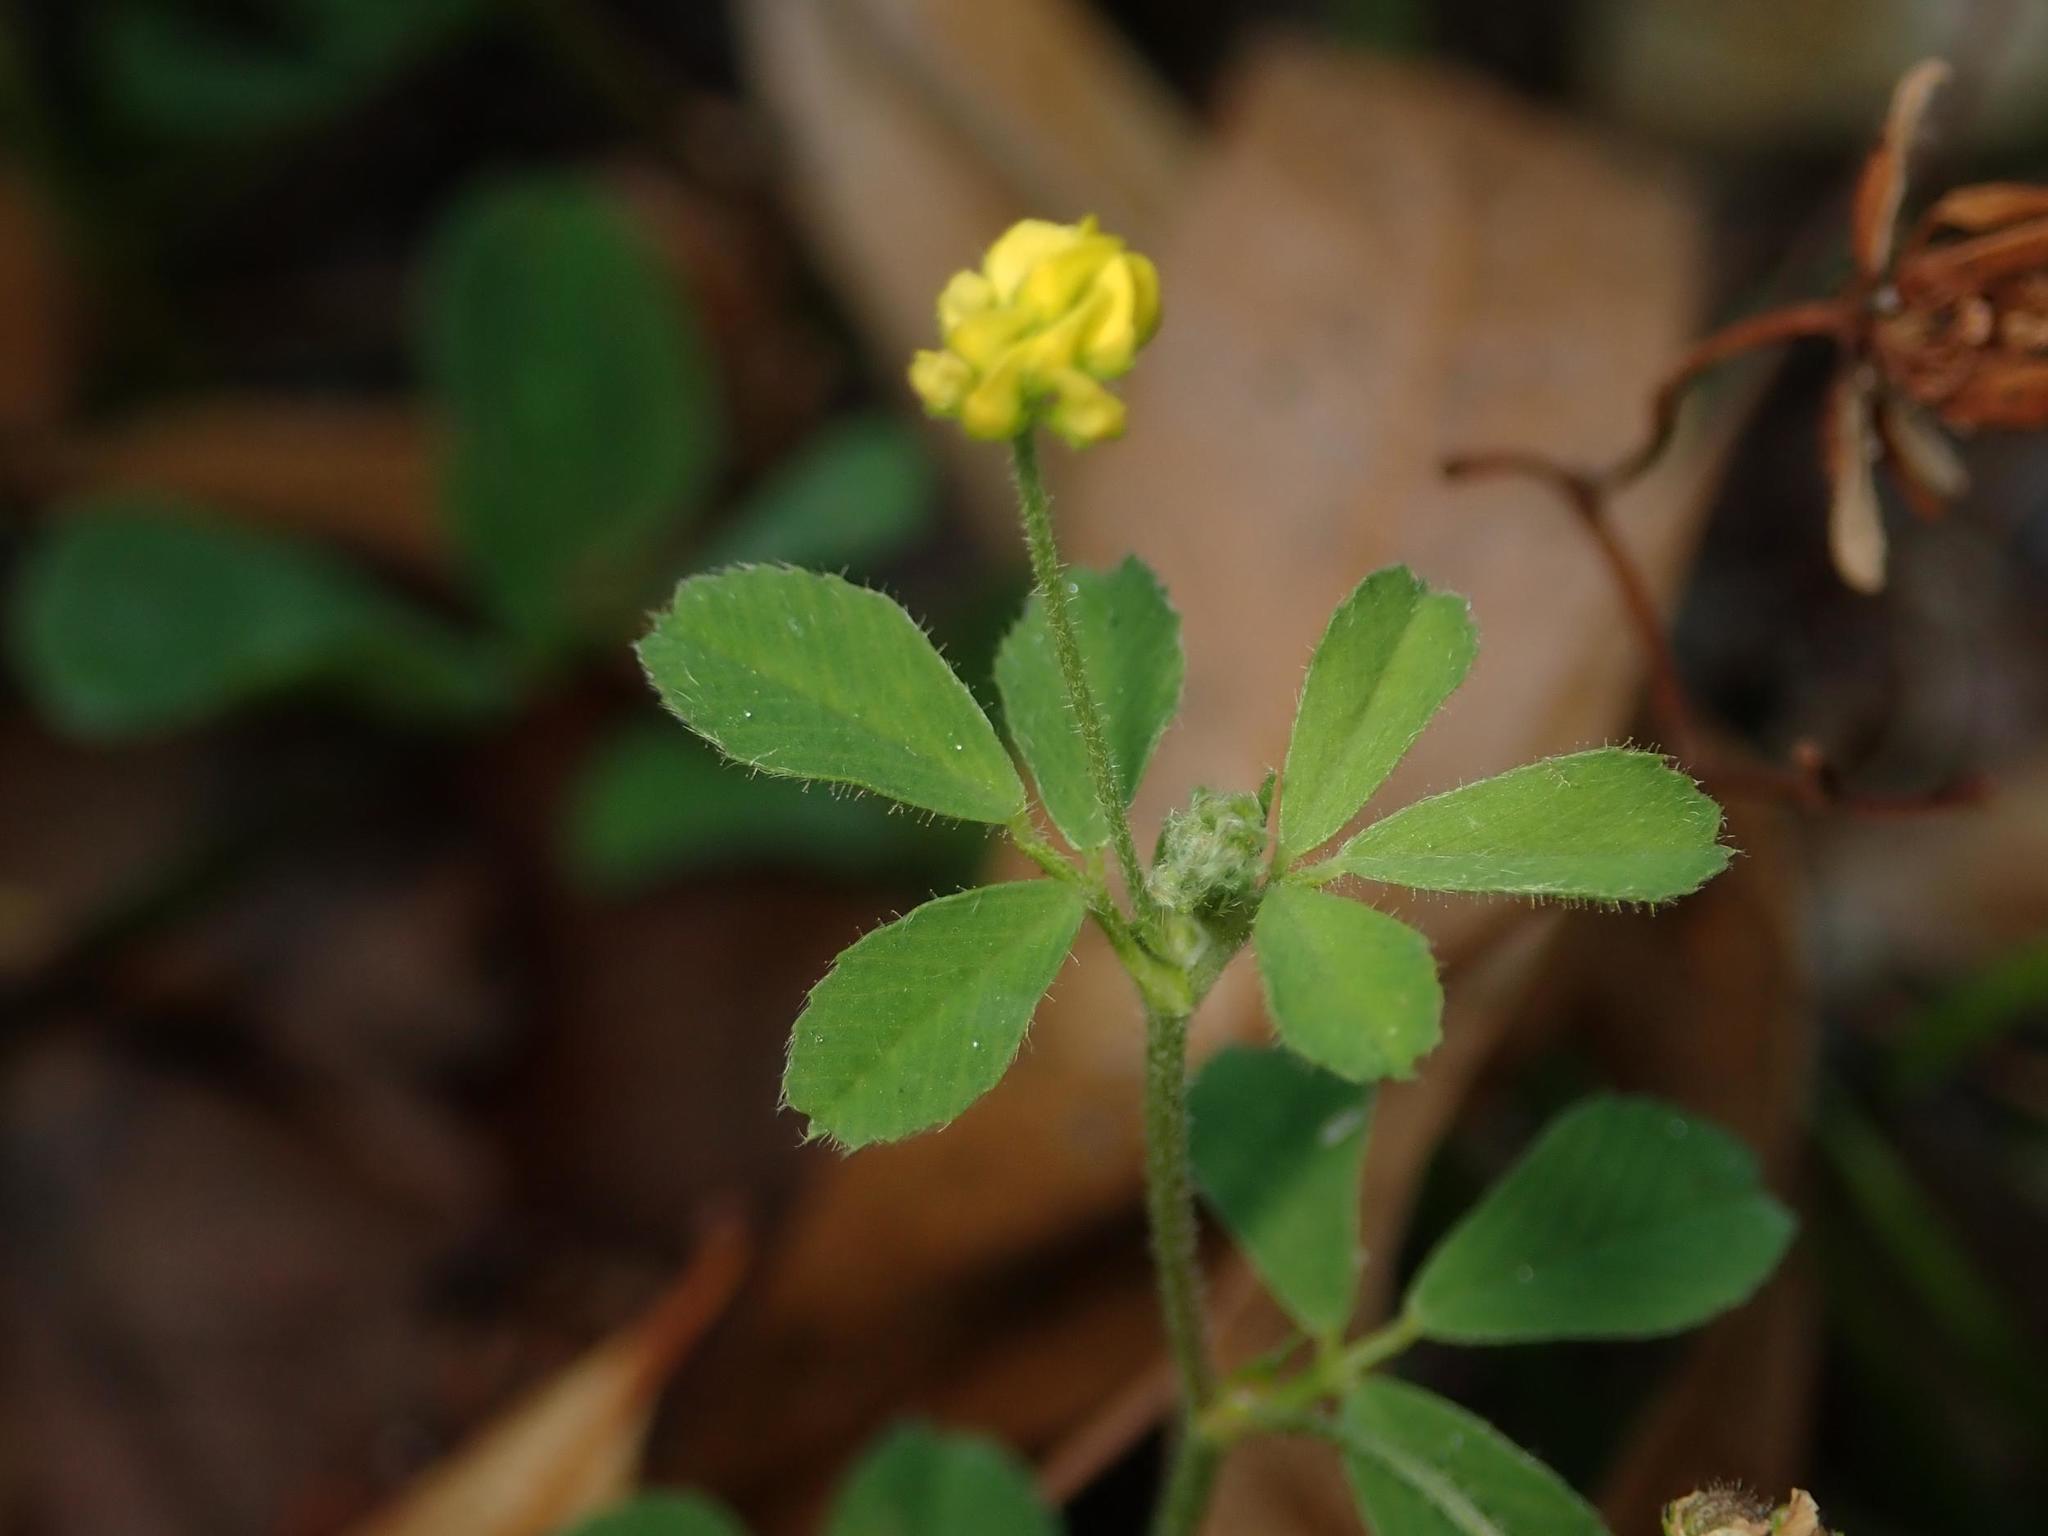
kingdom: Plantae
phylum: Tracheophyta
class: Magnoliopsida
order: Fabales
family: Fabaceae
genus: Medicago
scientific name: Medicago lupulina
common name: Black medick
